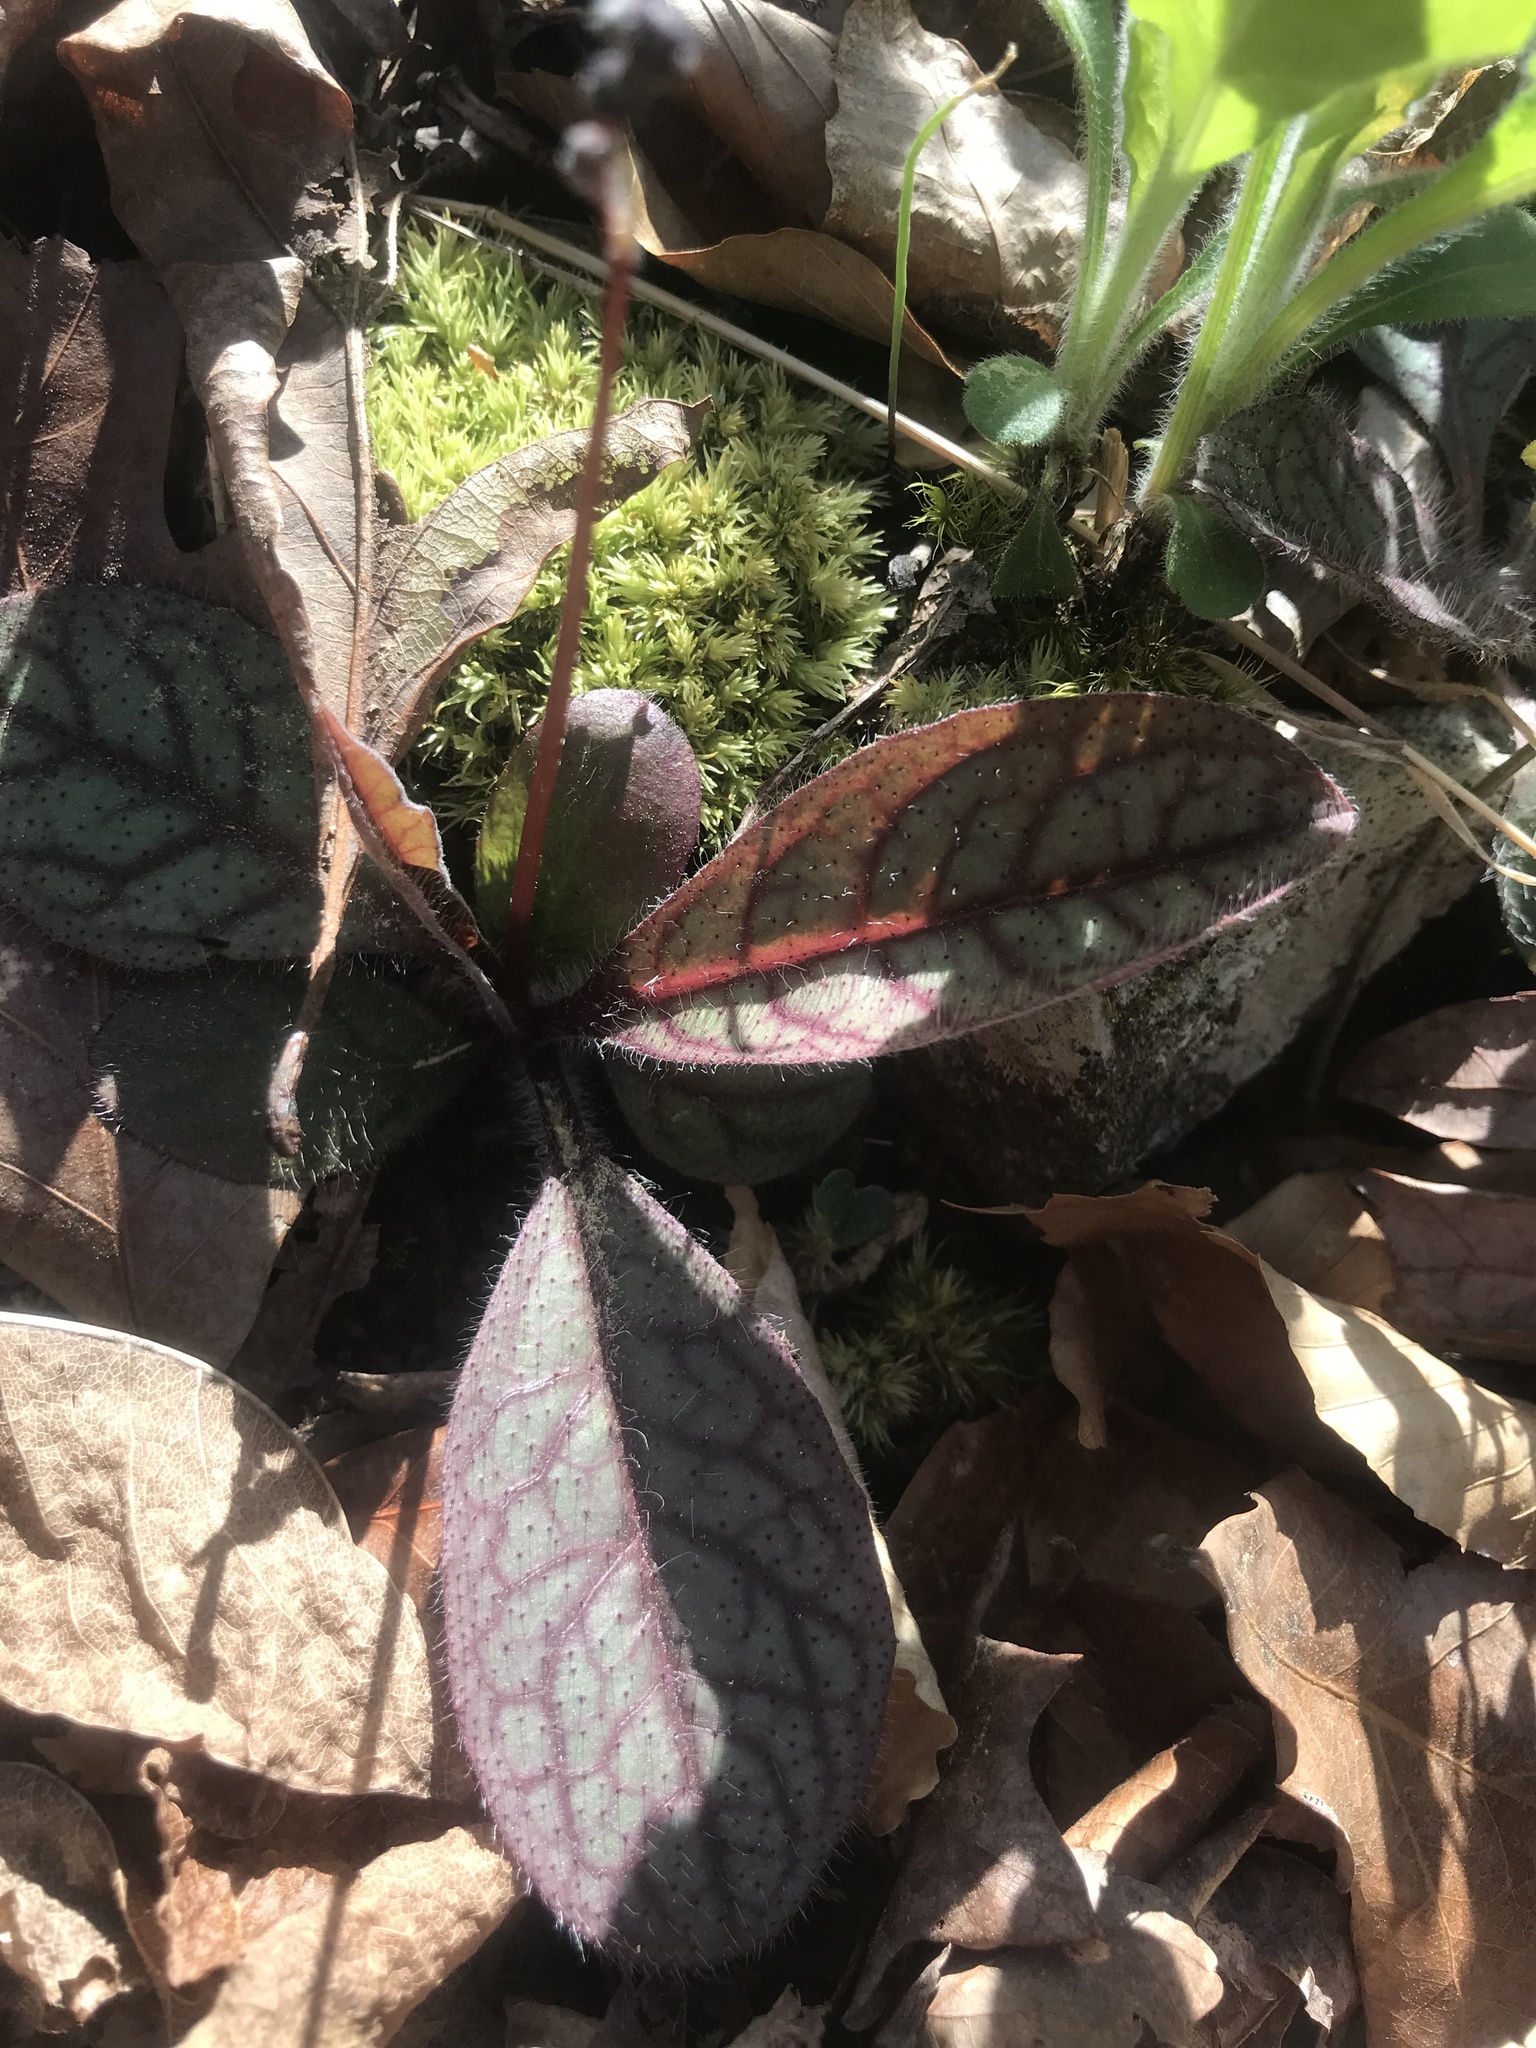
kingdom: Plantae
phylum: Tracheophyta
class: Magnoliopsida
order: Asterales
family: Asteraceae
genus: Hieracium
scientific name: Hieracium venosum
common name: Rattlesnake hawkweed
